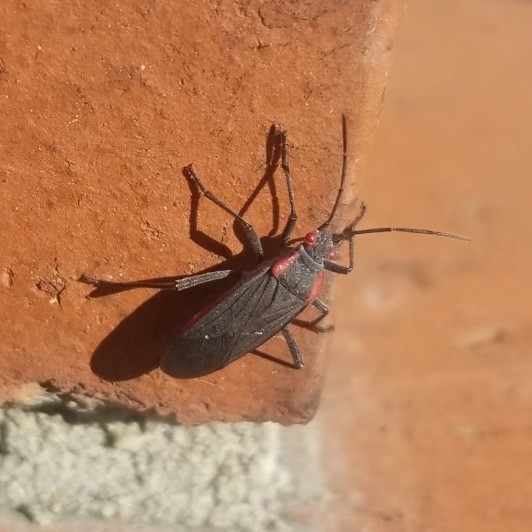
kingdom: Animalia
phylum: Arthropoda
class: Insecta
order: Hemiptera
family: Rhopalidae
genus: Jadera
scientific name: Jadera haematoloma
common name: Red-shouldered bug
